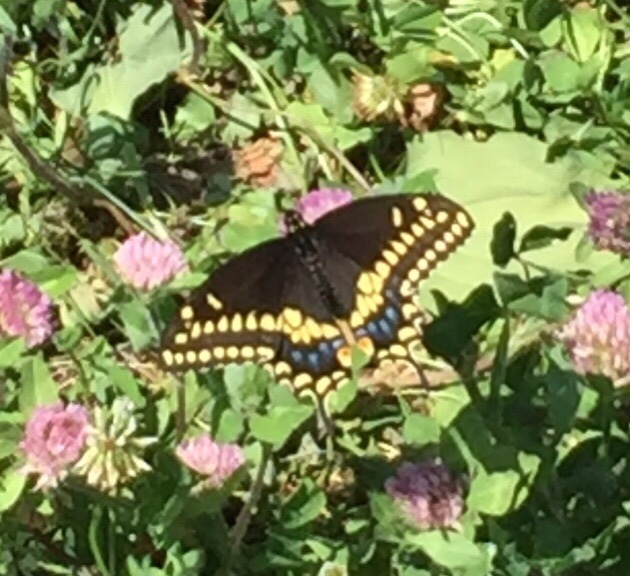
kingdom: Animalia
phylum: Arthropoda
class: Insecta
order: Lepidoptera
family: Papilionidae
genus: Papilio
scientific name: Papilio polyxenes
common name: Black swallowtail
